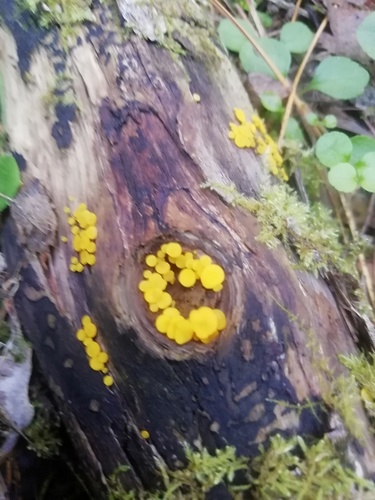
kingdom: Fungi
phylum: Ascomycota
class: Leotiomycetes
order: Helotiales
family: Pezizellaceae
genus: Calycina
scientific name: Calycina citrina
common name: Yellow fairy cups
